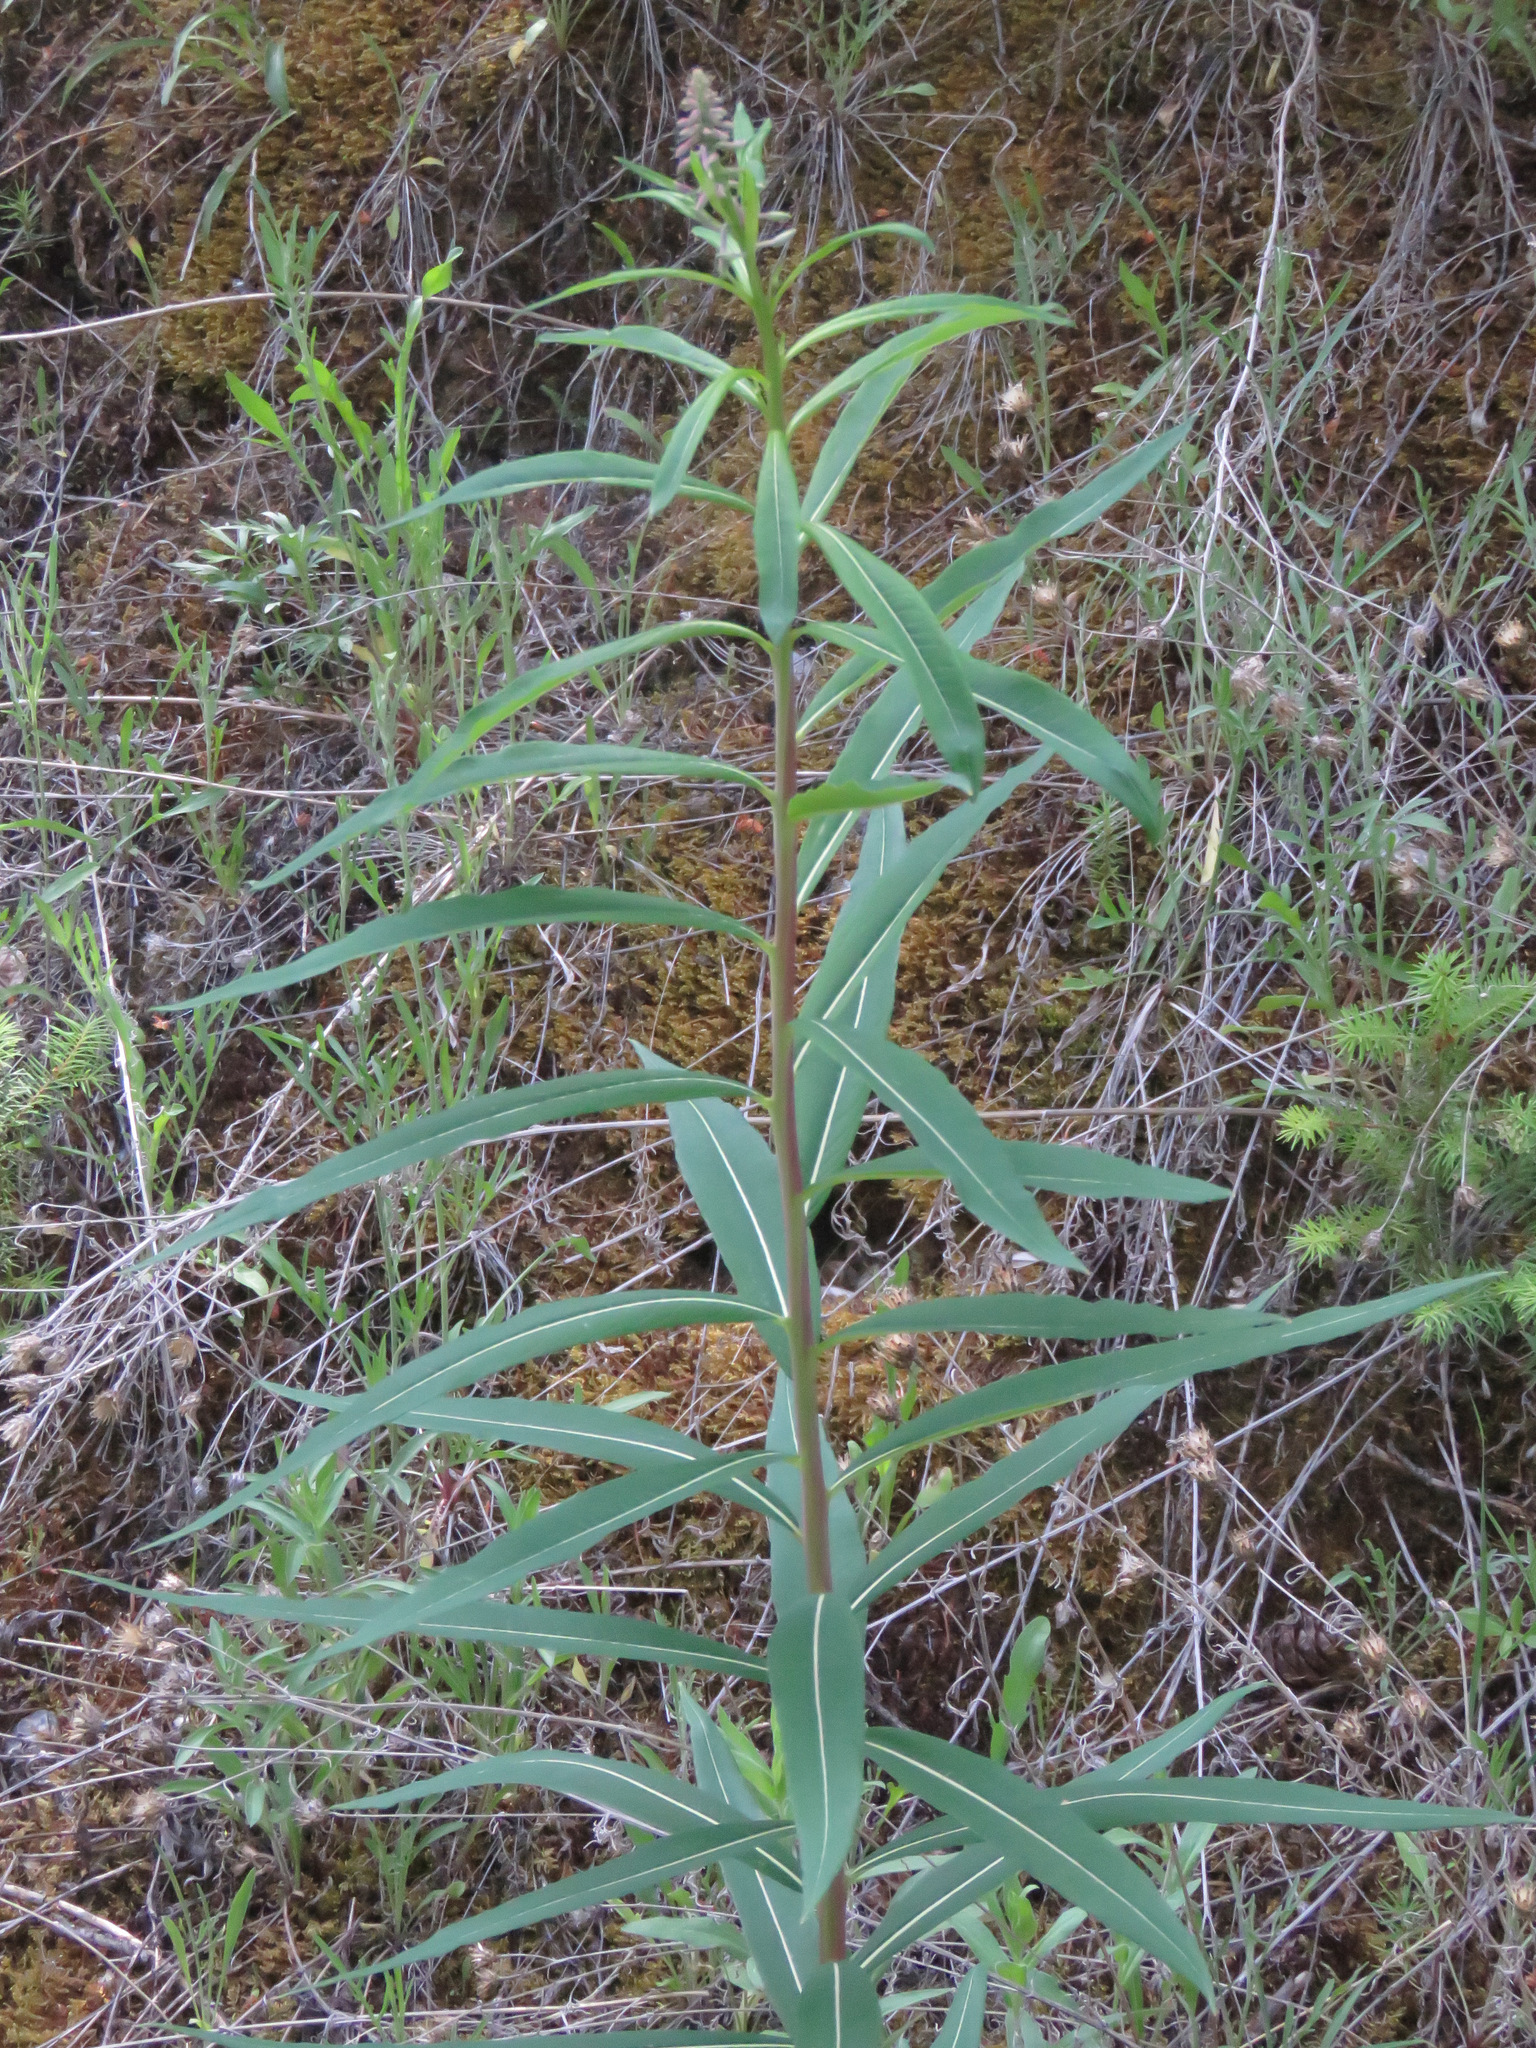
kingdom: Plantae
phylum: Tracheophyta
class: Magnoliopsida
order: Myrtales
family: Onagraceae
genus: Chamaenerion
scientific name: Chamaenerion angustifolium
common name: Fireweed
